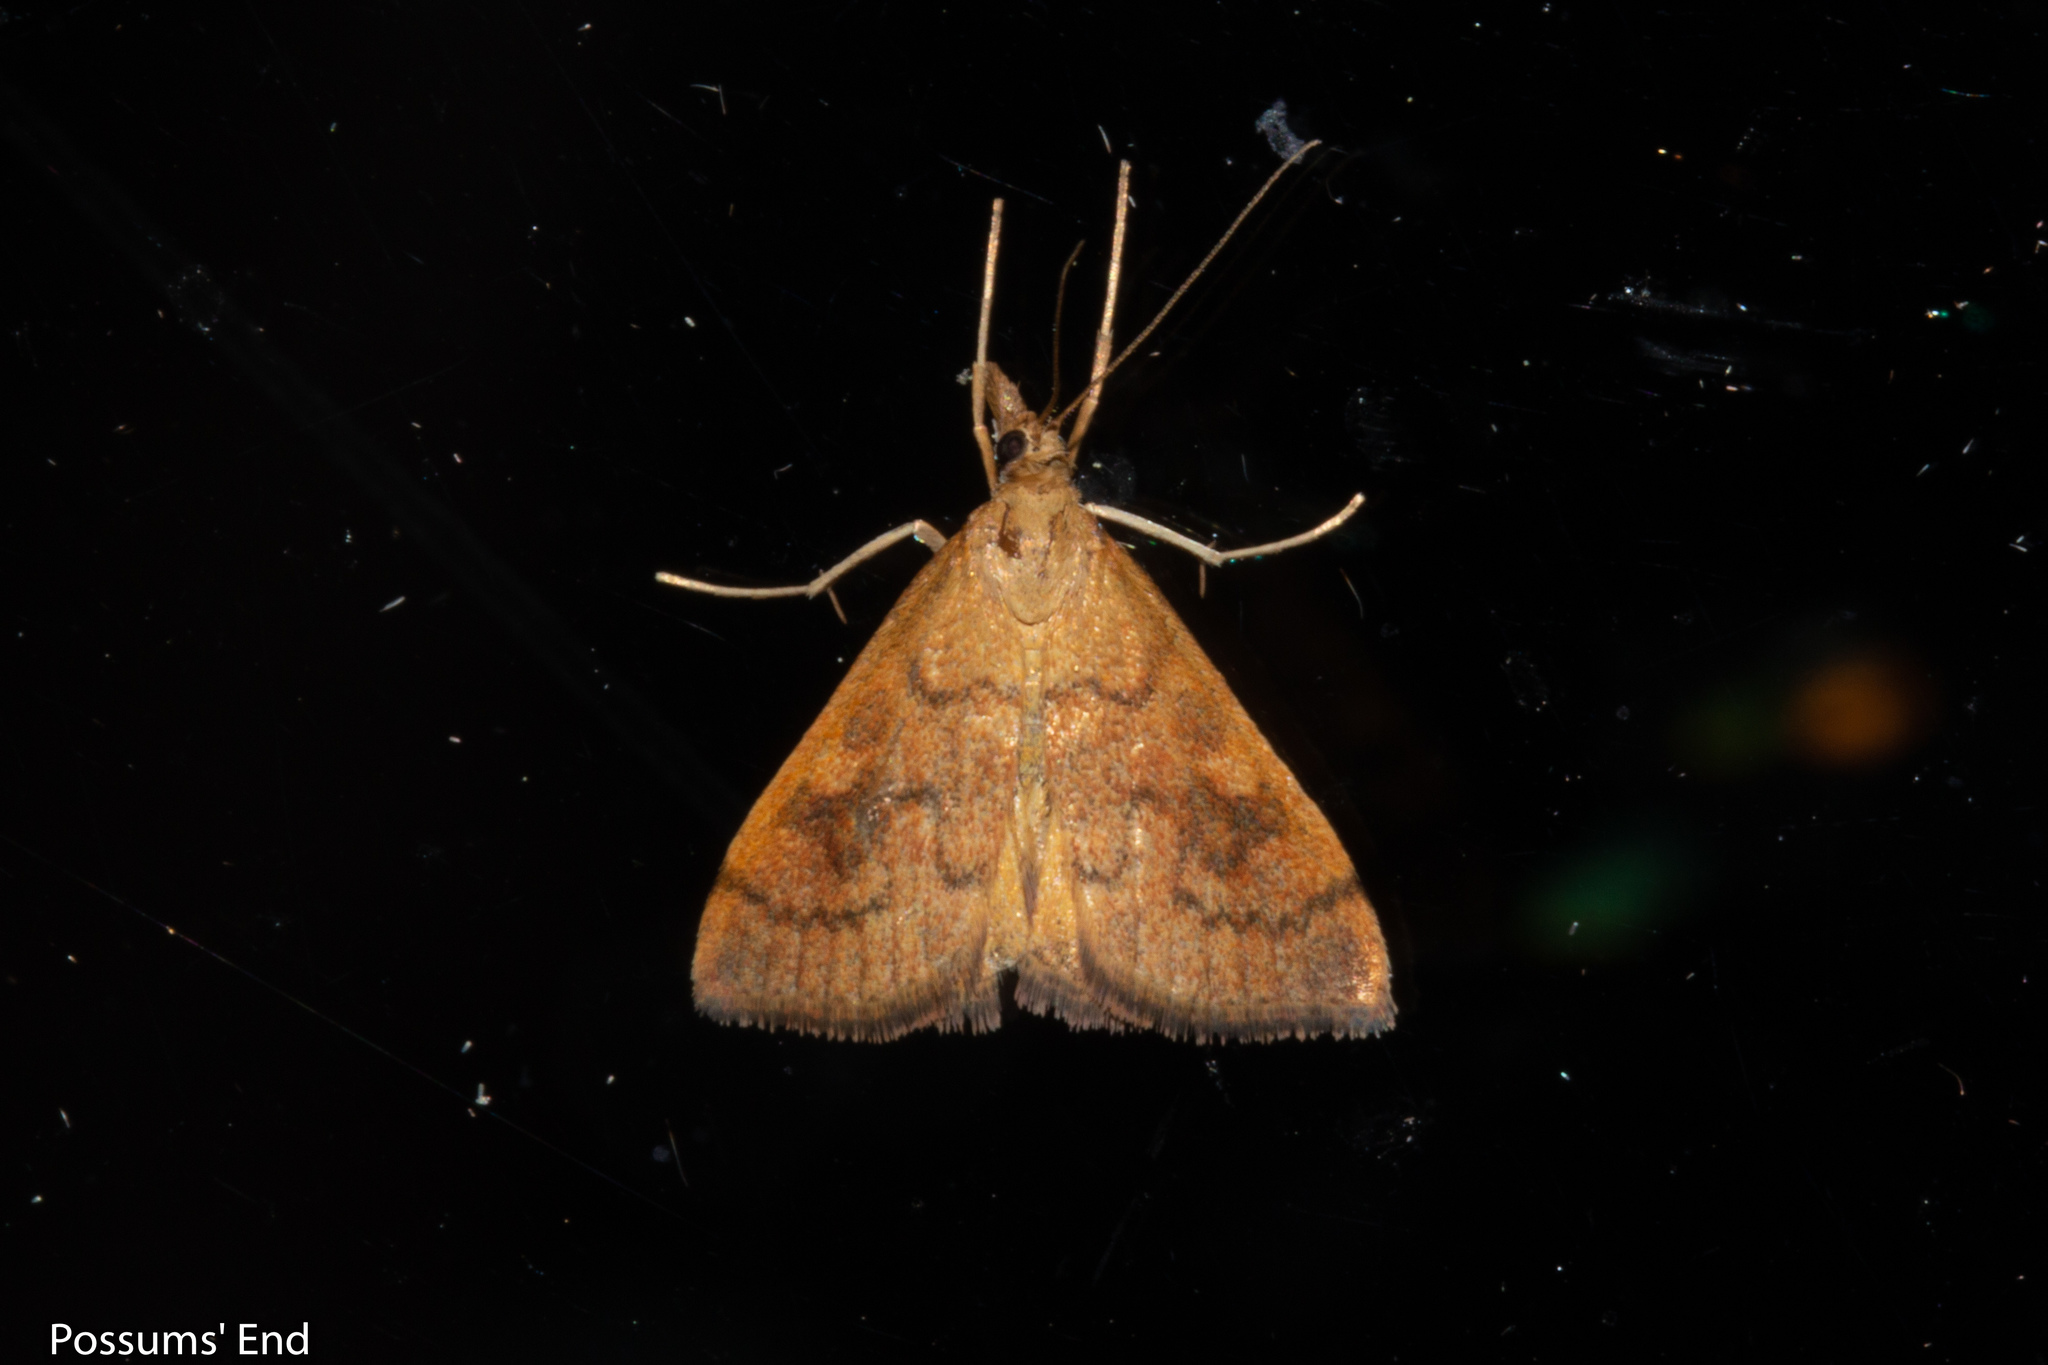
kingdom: Animalia
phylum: Arthropoda
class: Insecta
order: Lepidoptera
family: Crambidae
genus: Udea
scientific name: Udea Mnesictena flavidalis
